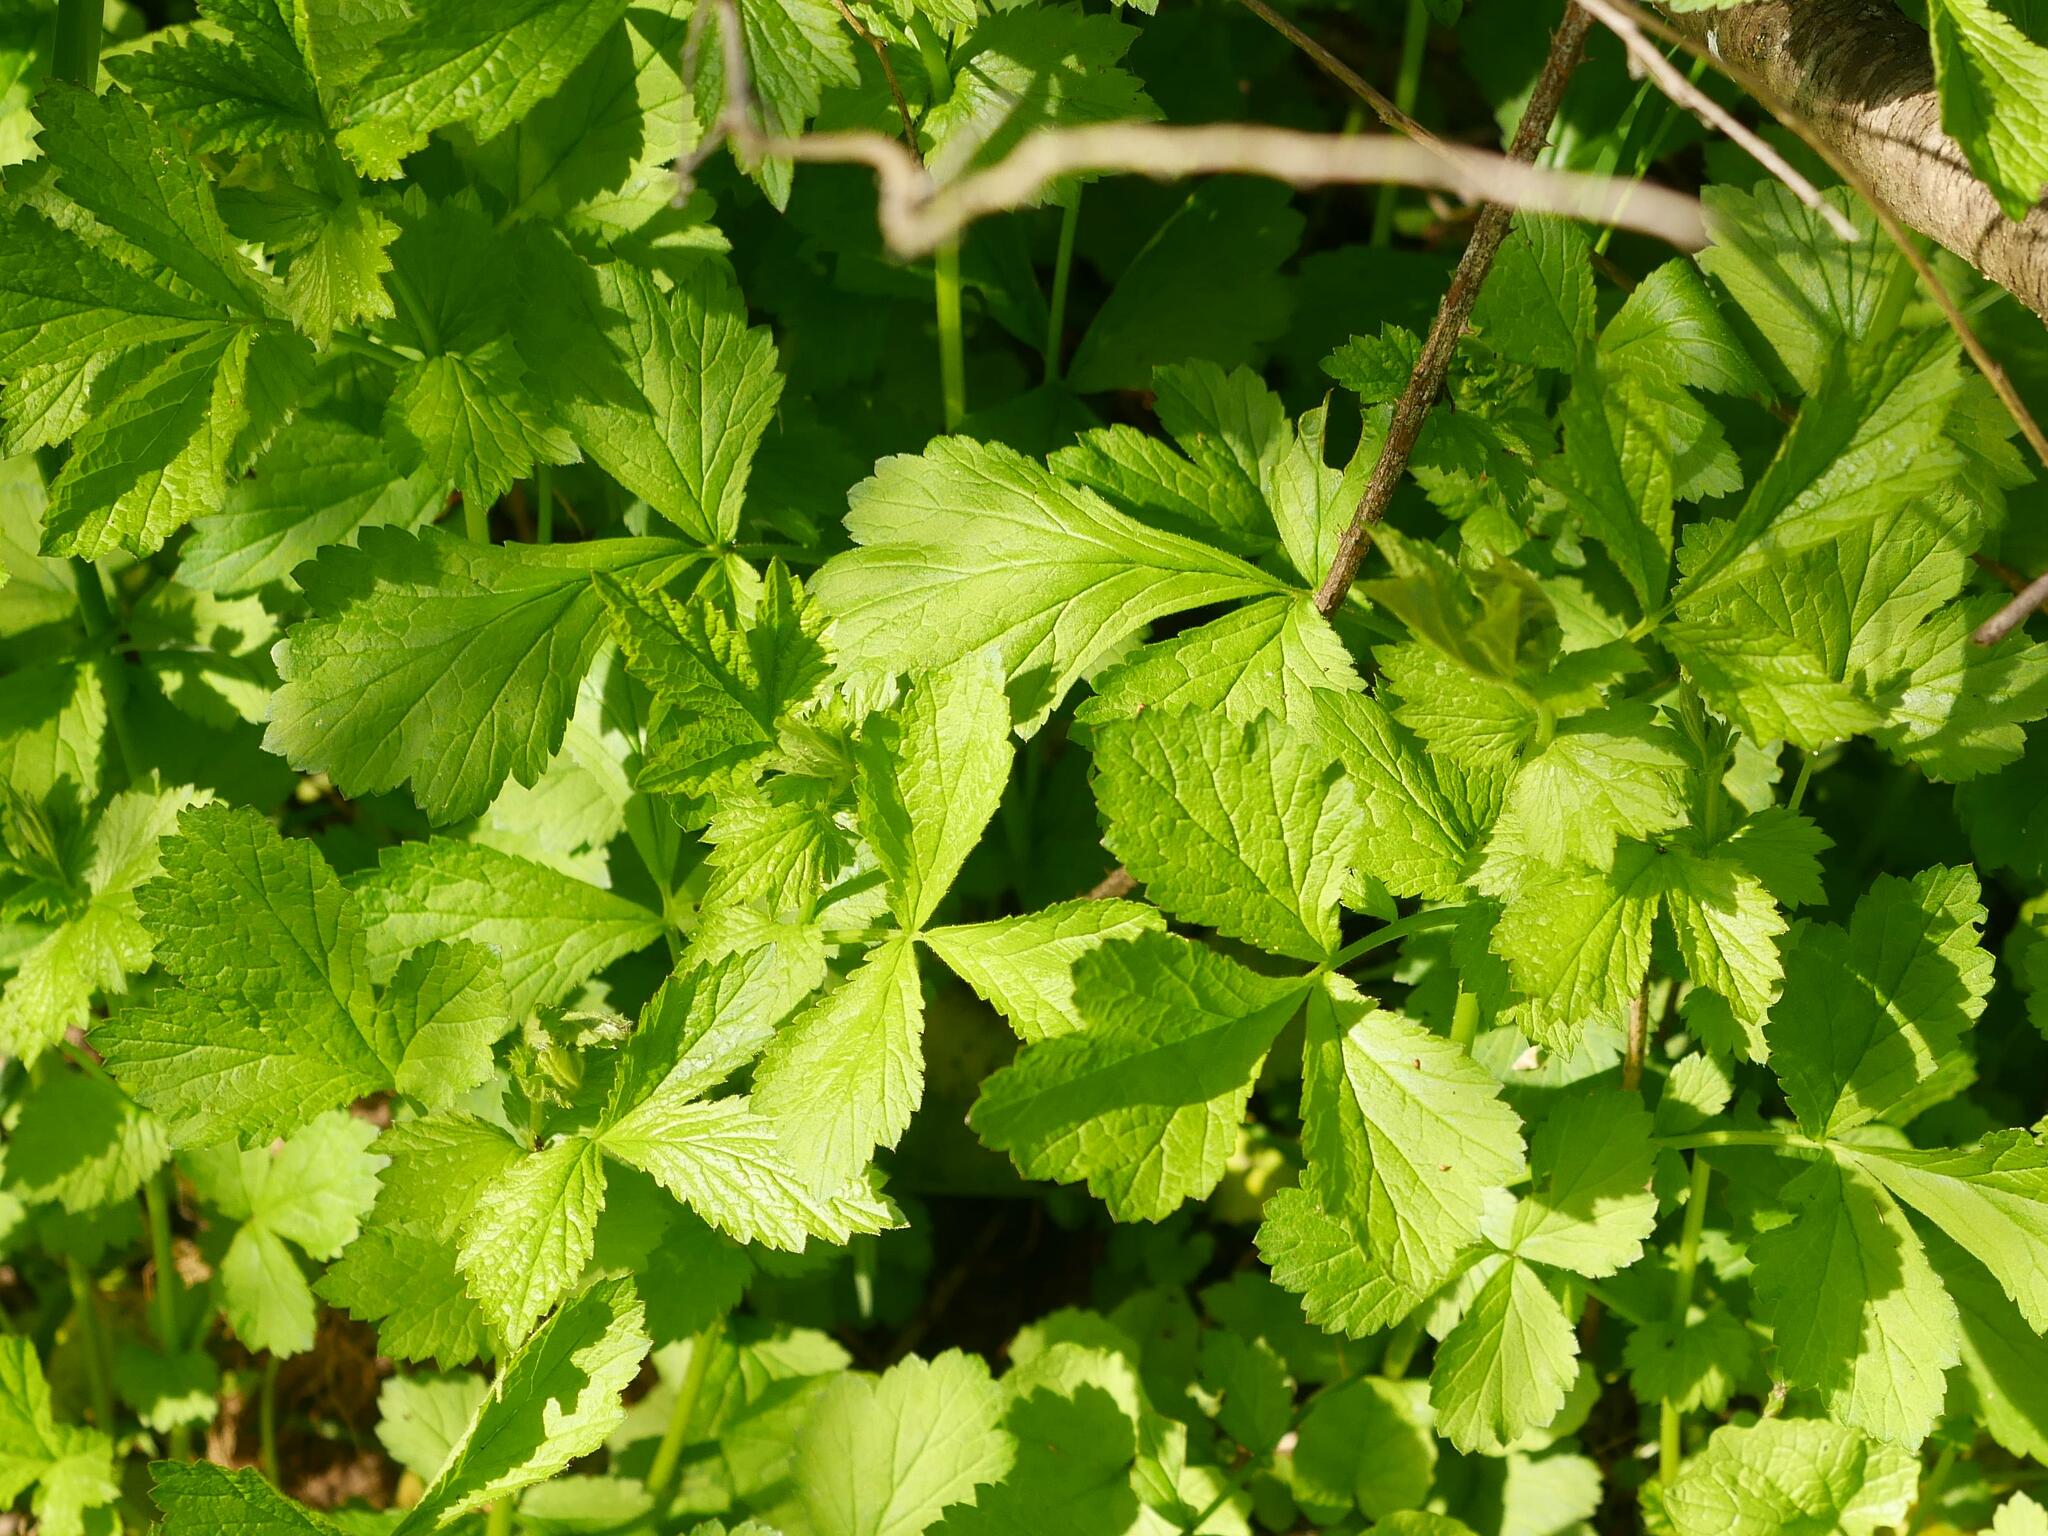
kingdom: Plantae
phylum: Tracheophyta
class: Magnoliopsida
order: Rosales
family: Rosaceae
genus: Geum
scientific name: Geum urbanum
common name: Wood avens
